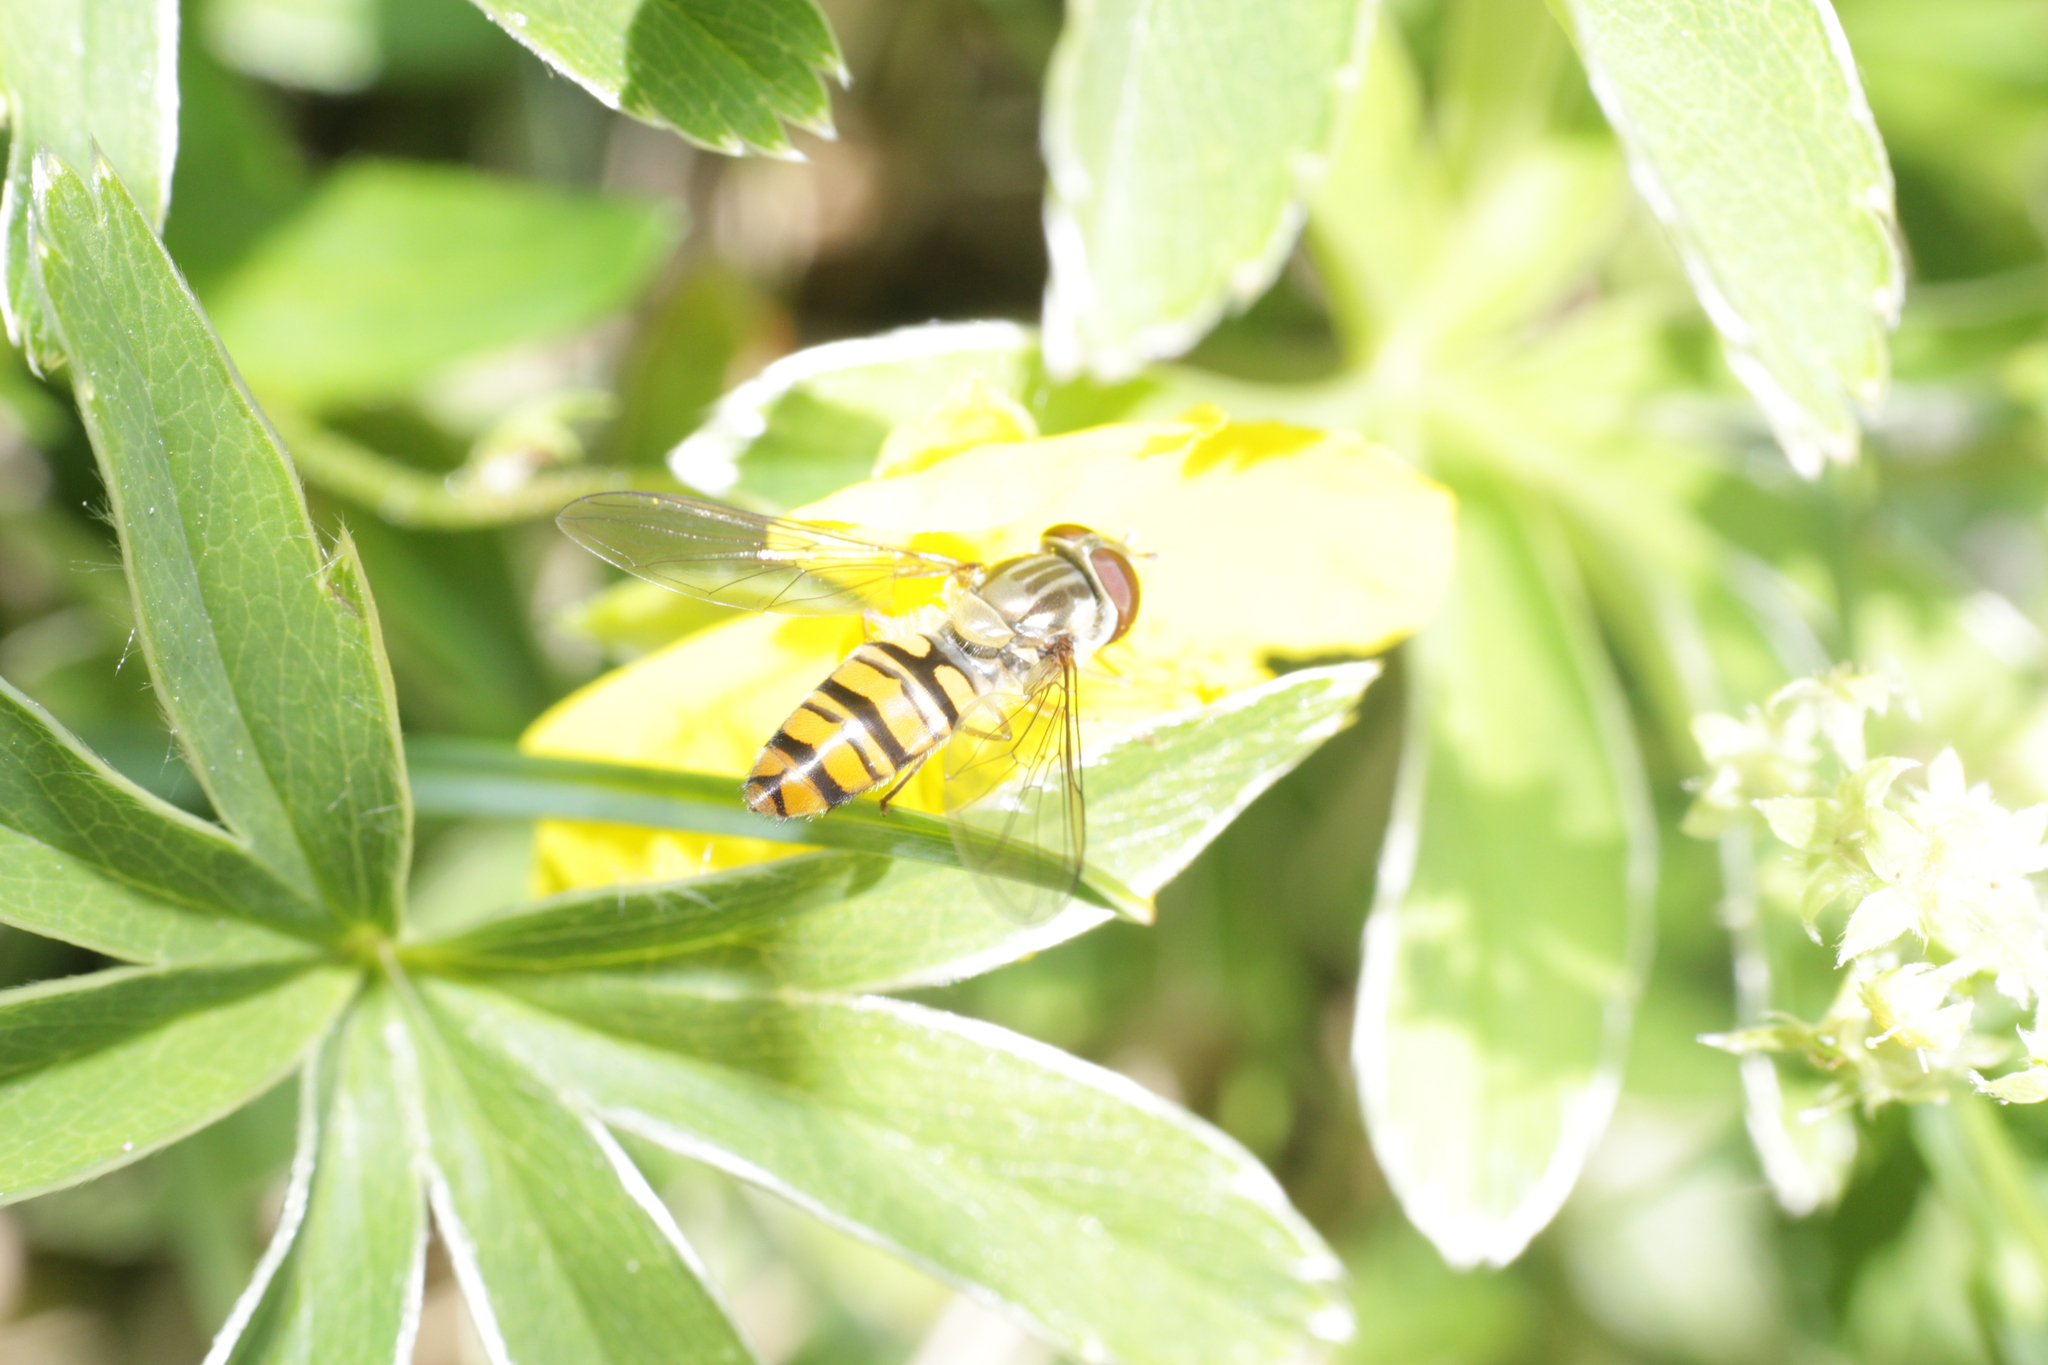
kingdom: Animalia
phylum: Arthropoda
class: Insecta
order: Diptera
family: Syrphidae
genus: Episyrphus
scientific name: Episyrphus balteatus
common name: Marmalade hoverfly
